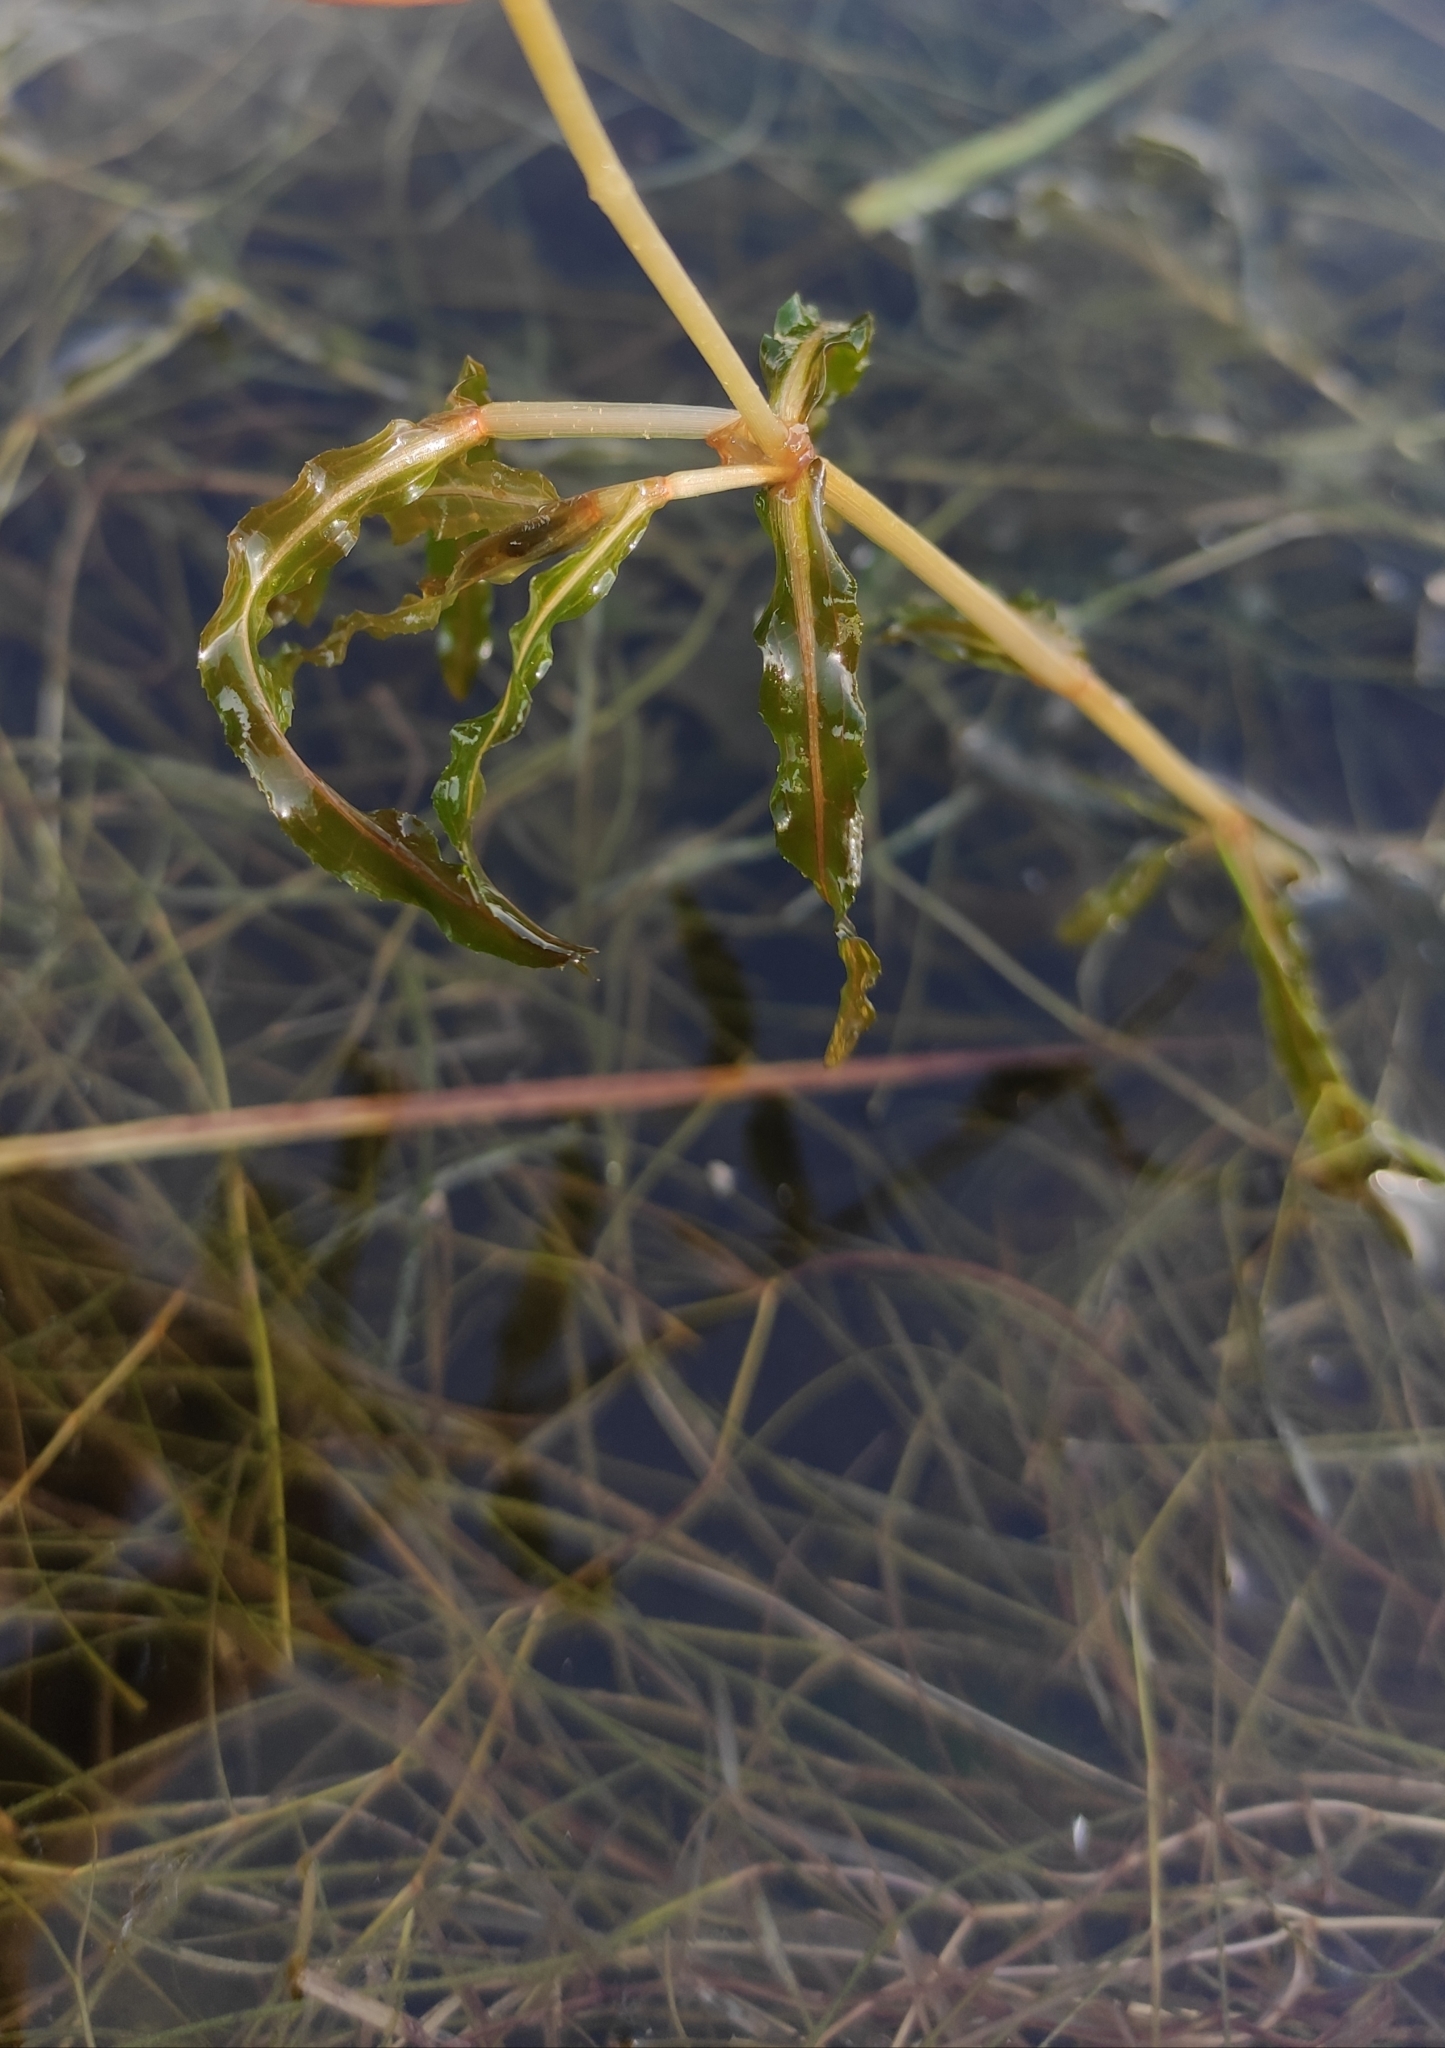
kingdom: Plantae
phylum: Tracheophyta
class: Liliopsida
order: Alismatales
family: Potamogetonaceae
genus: Potamogeton
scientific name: Potamogeton crispus
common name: Curled pondweed
